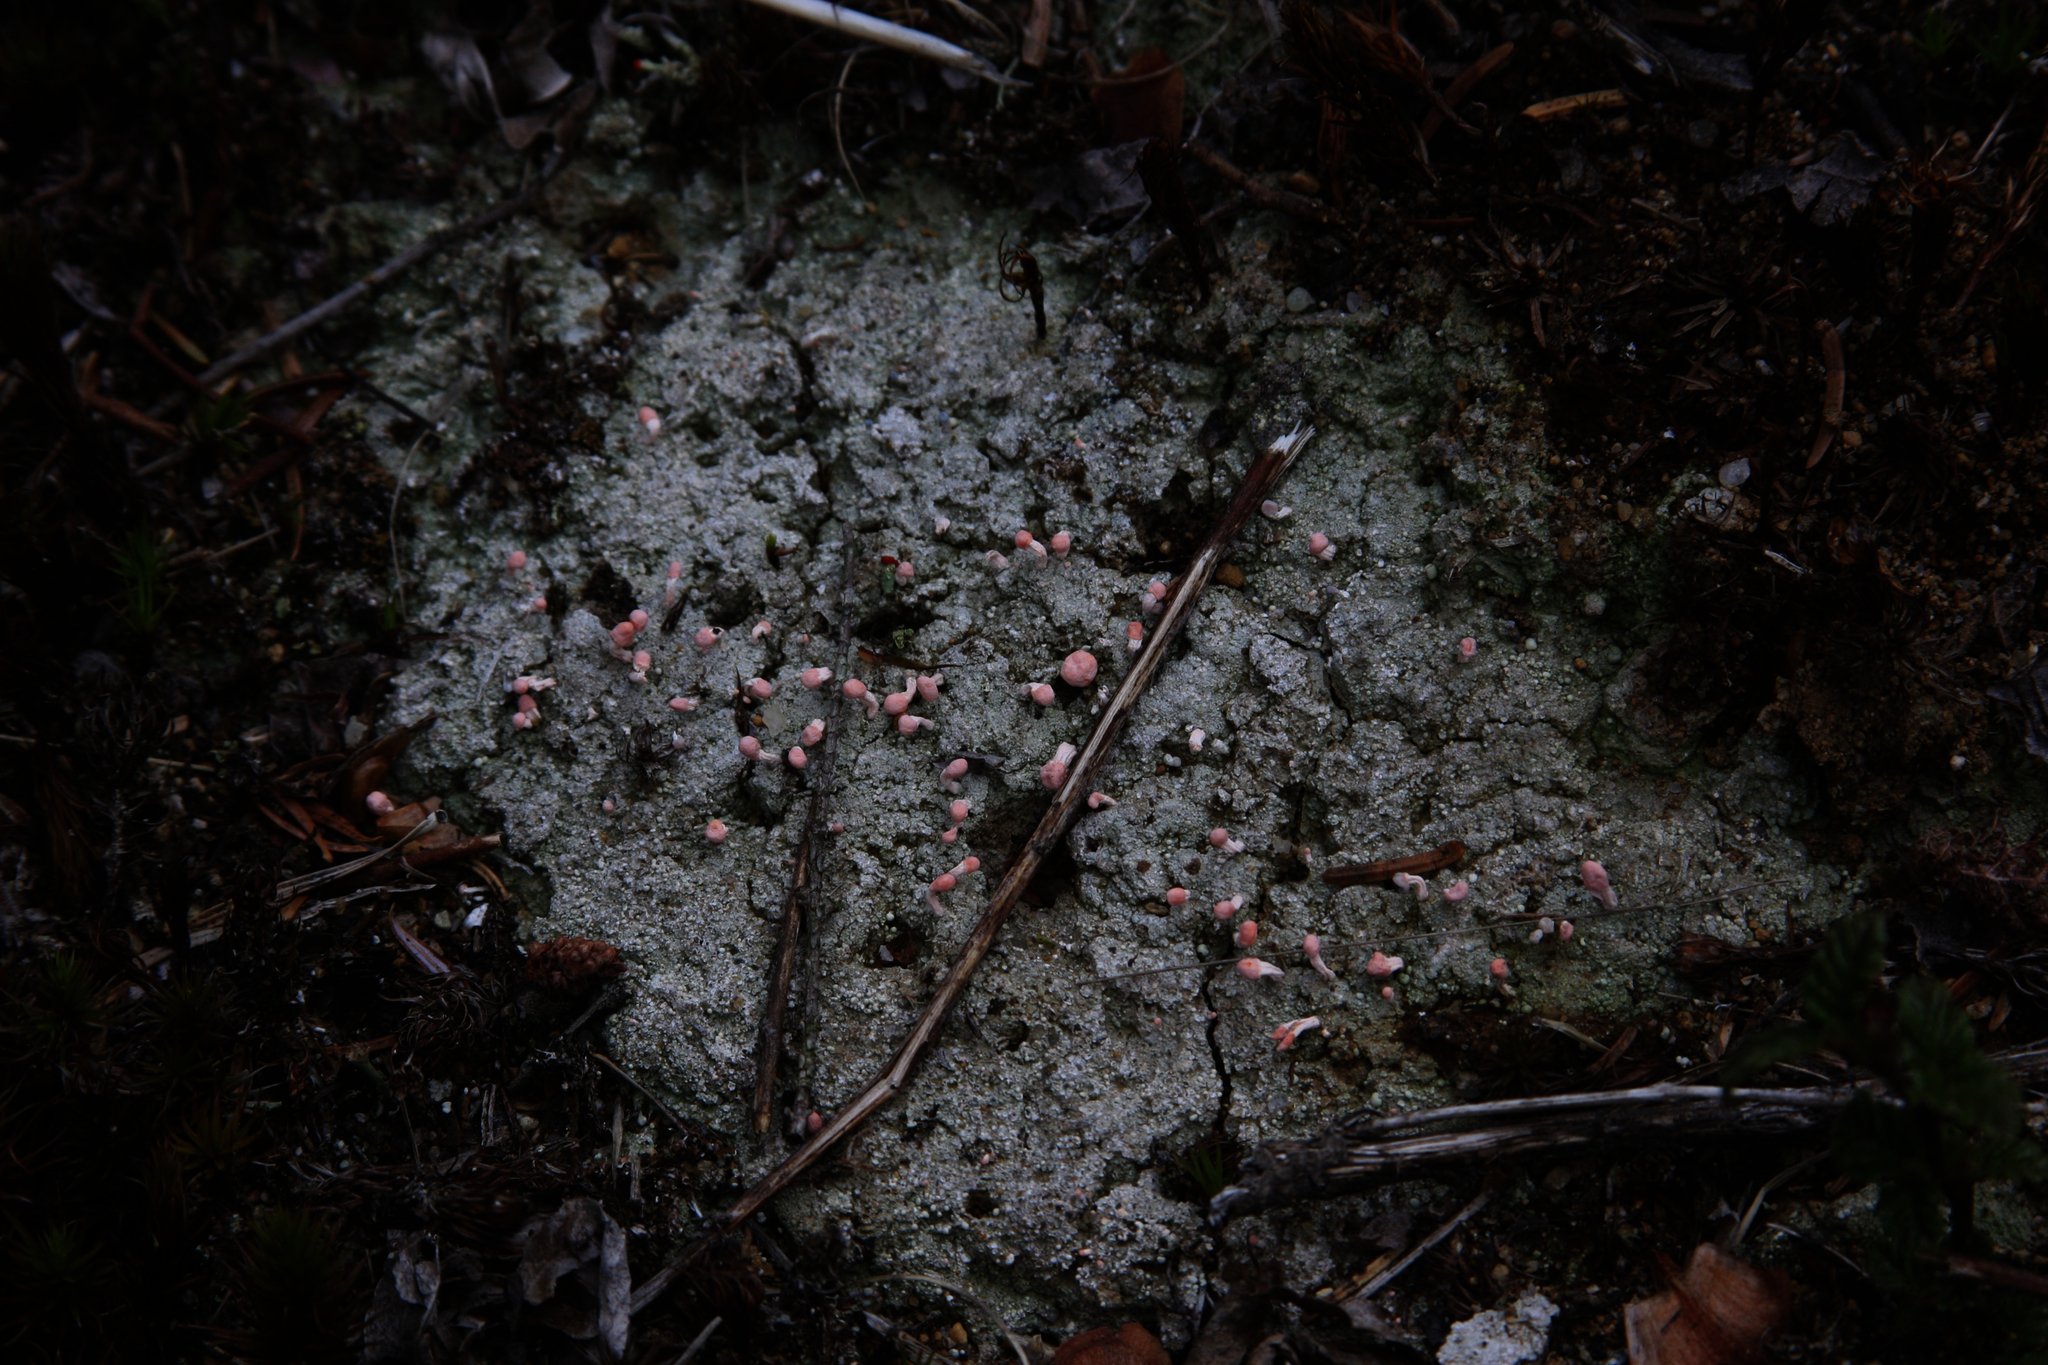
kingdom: Fungi
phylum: Ascomycota
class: Lecanoromycetes
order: Pertusariales
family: Icmadophilaceae
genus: Dibaeis
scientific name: Dibaeis baeomyces
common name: Pink earth lichen
